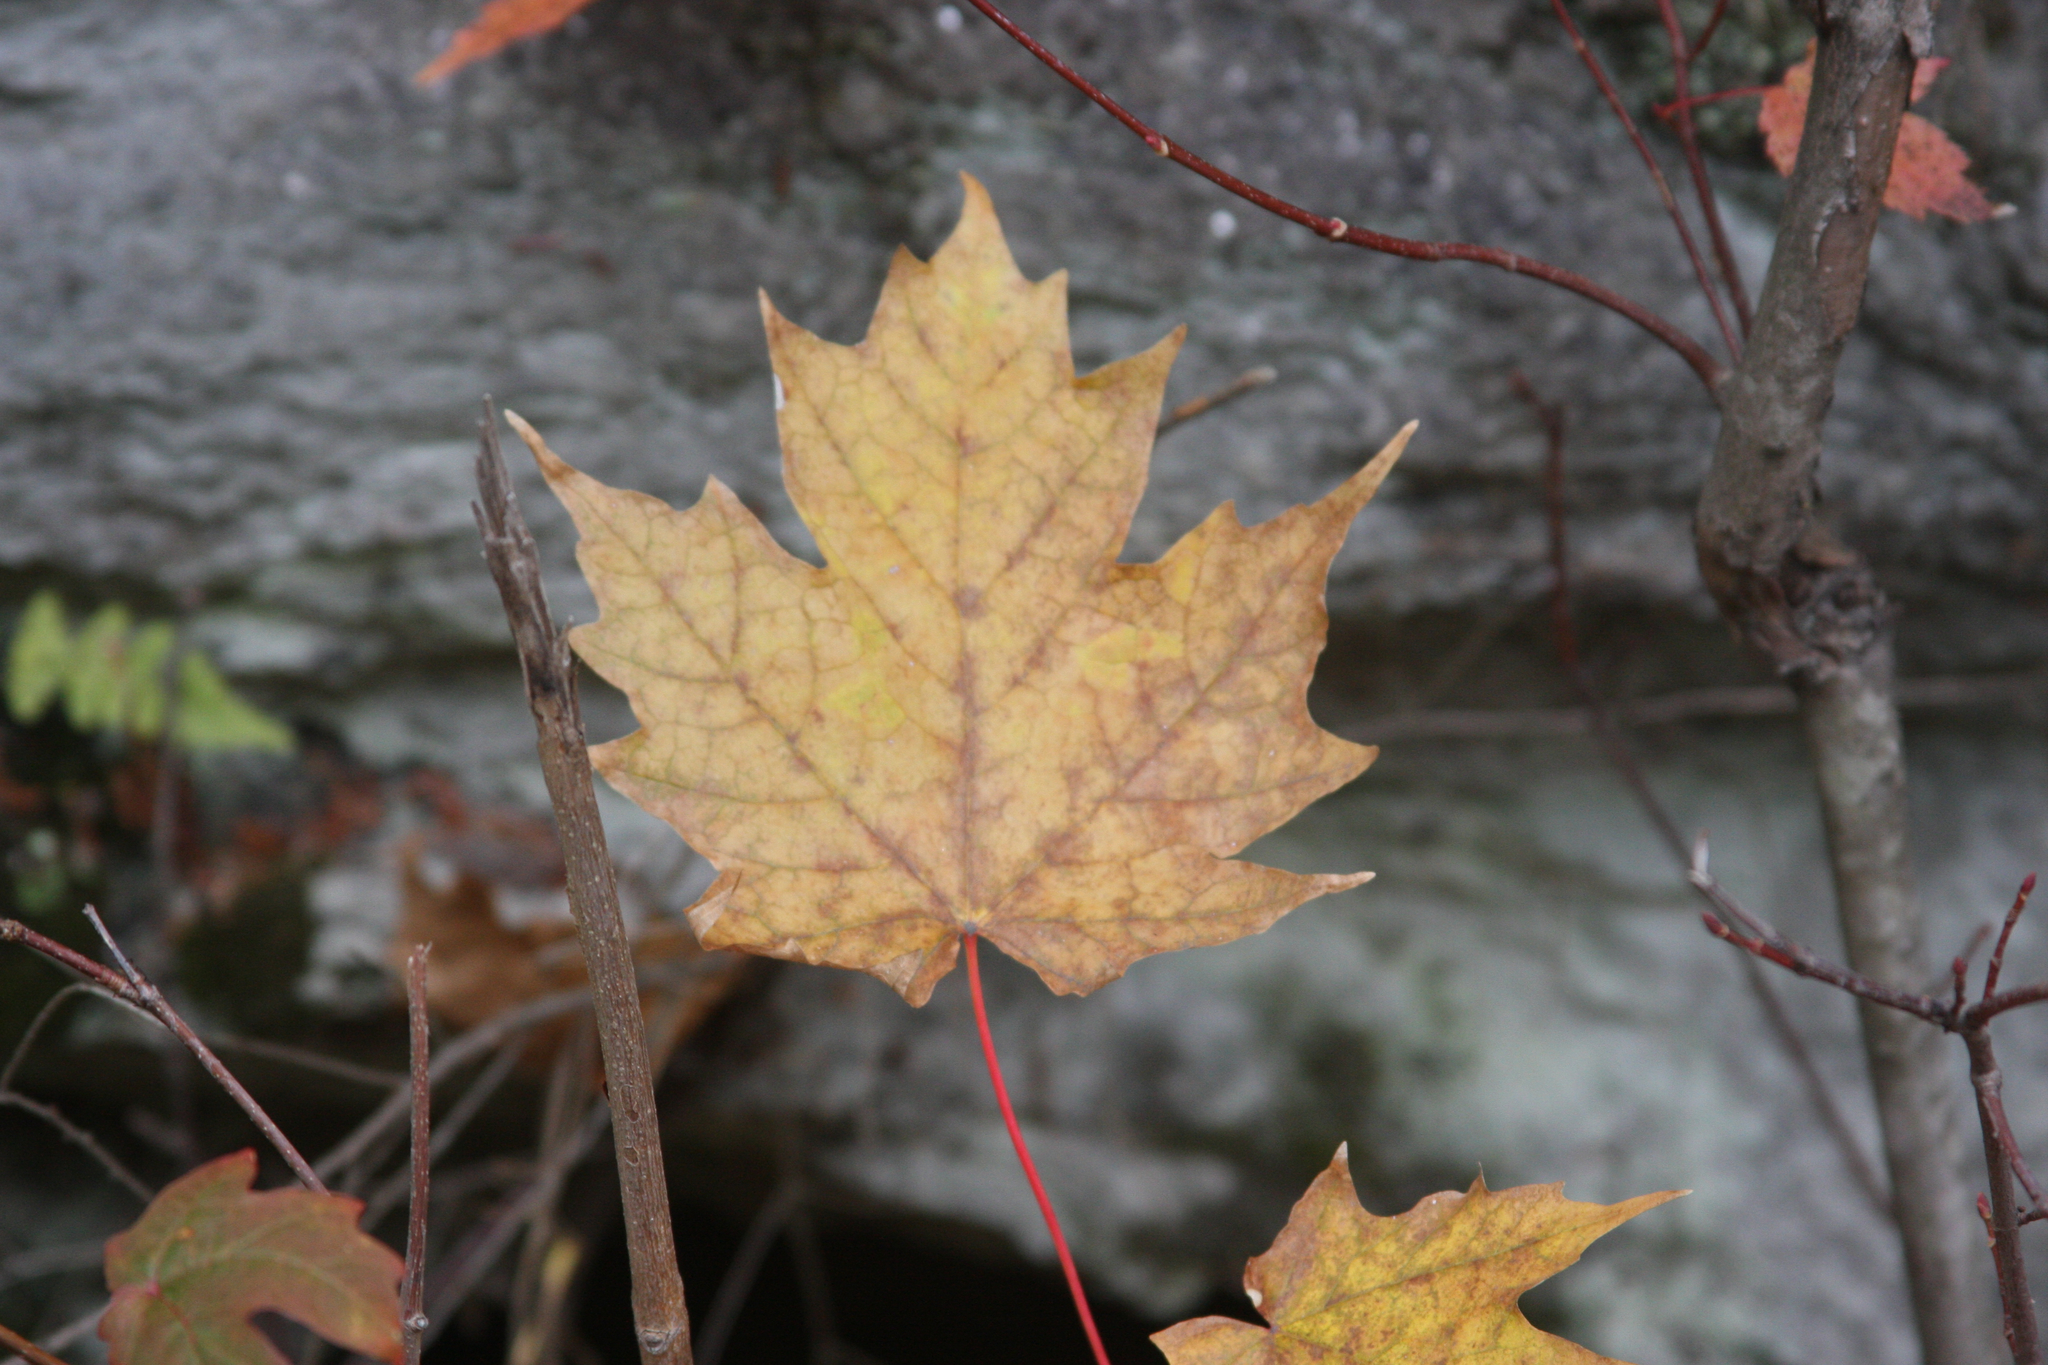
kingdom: Plantae
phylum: Tracheophyta
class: Magnoliopsida
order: Sapindales
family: Sapindaceae
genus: Acer
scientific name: Acer saccharum
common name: Sugar maple
